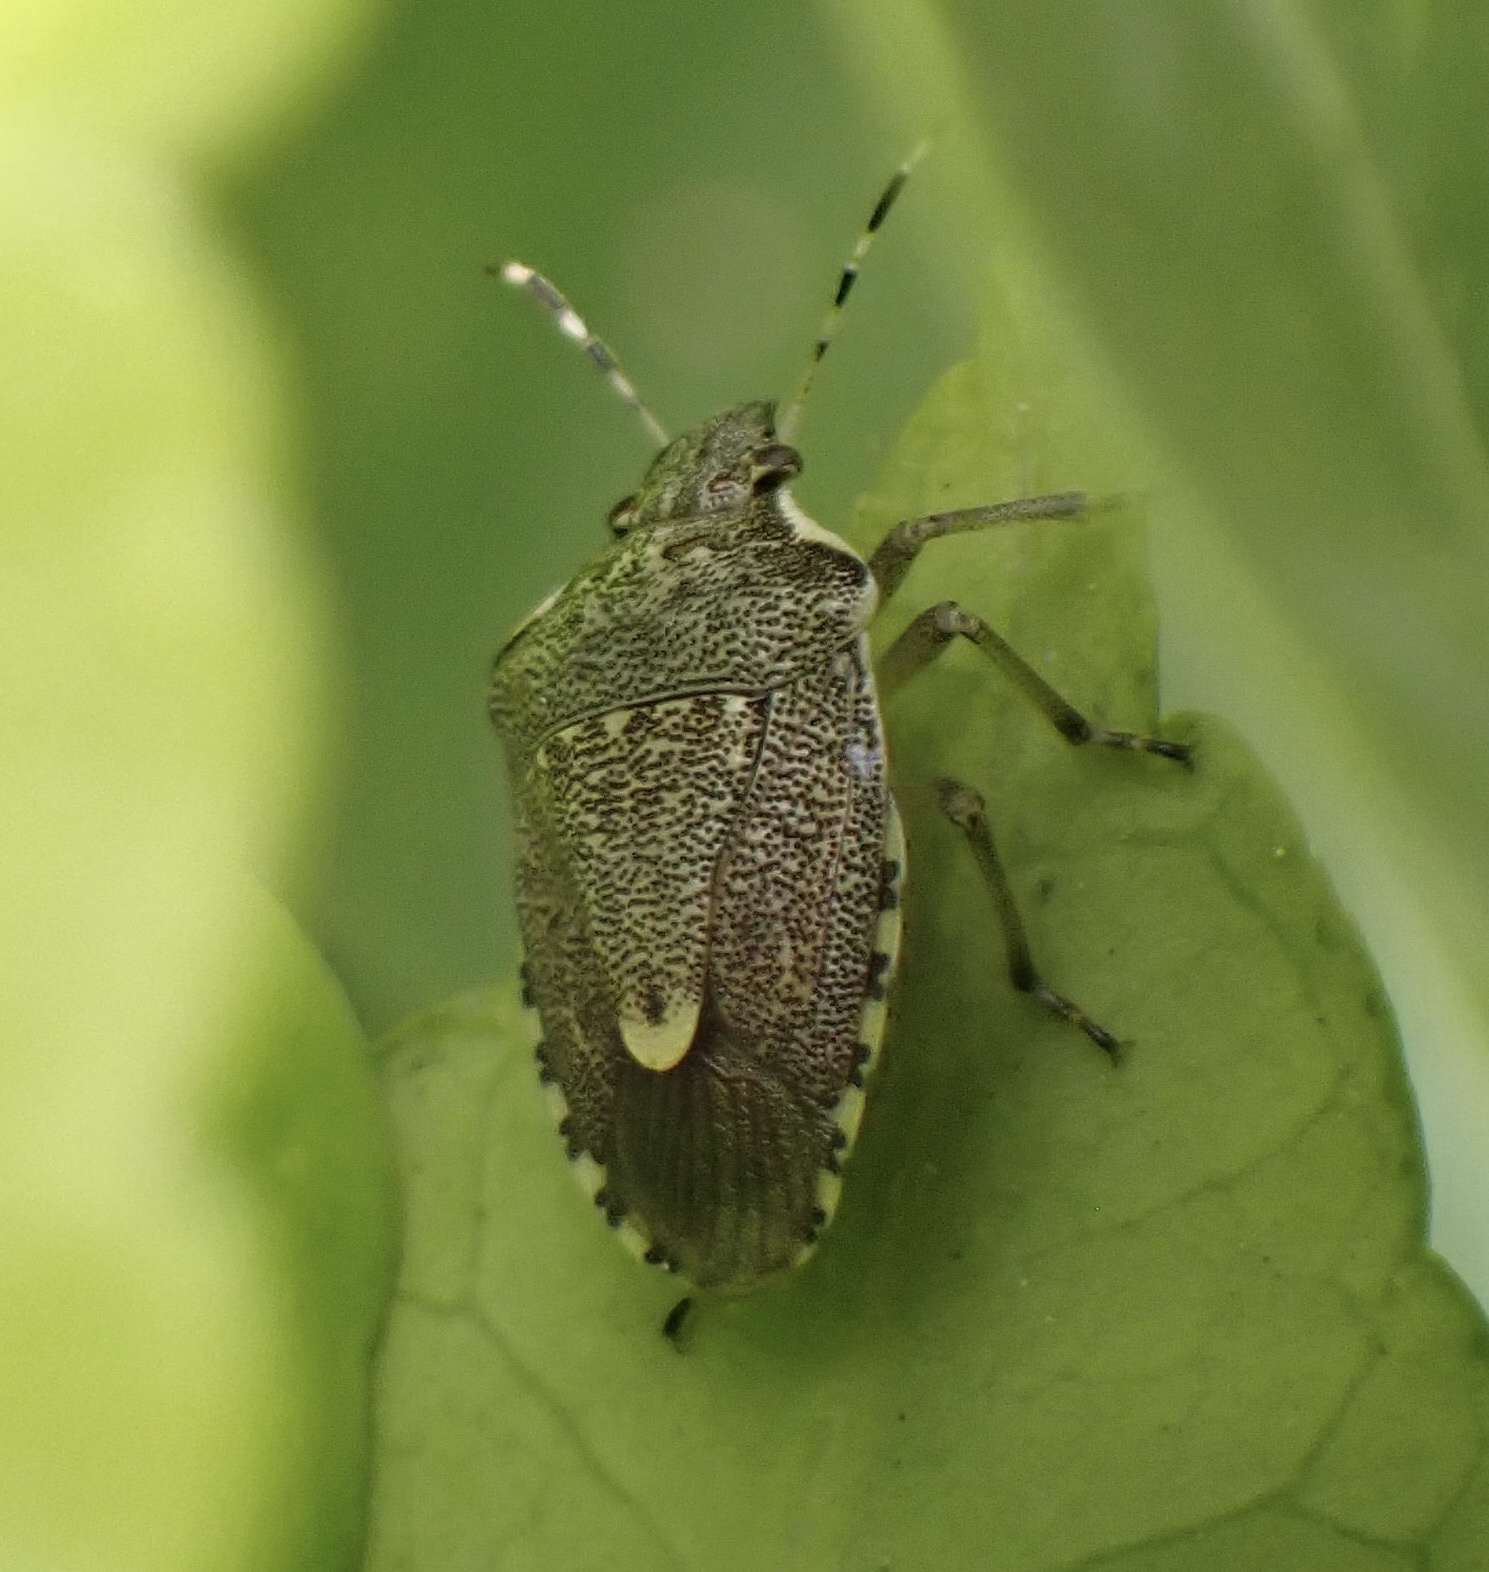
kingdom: Animalia
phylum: Arthropoda
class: Insecta
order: Hemiptera
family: Pentatomidae
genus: Holcostethus
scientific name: Holcostethus albipes
